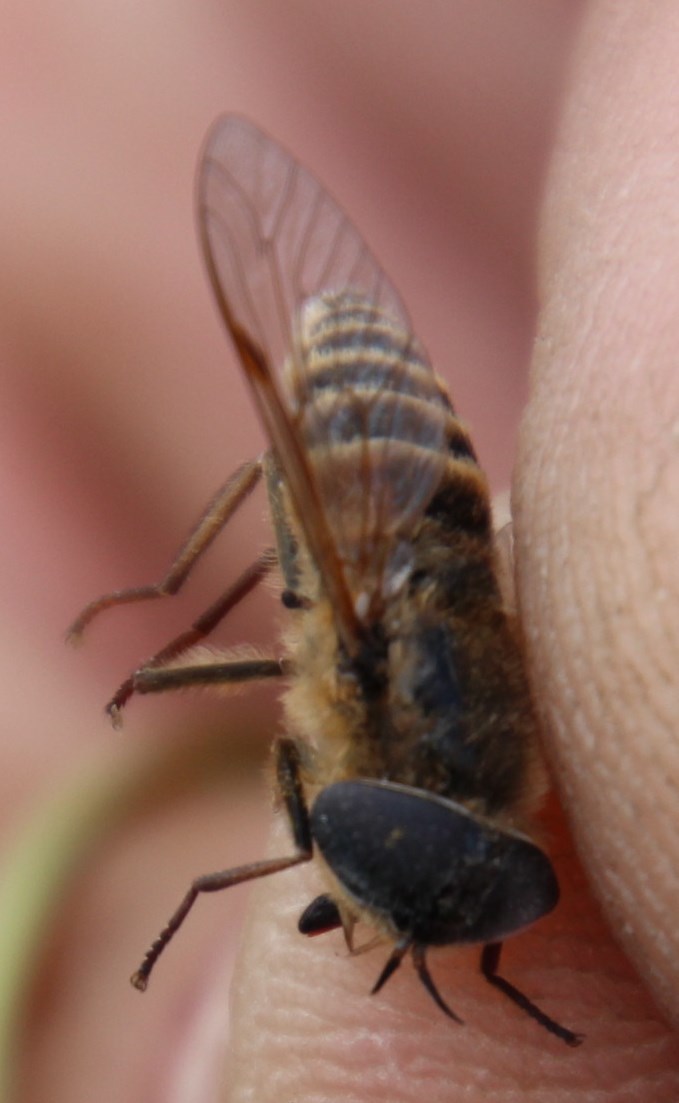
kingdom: Animalia
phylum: Arthropoda
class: Insecta
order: Diptera
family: Tabanidae
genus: Limata
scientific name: Limata capensis
